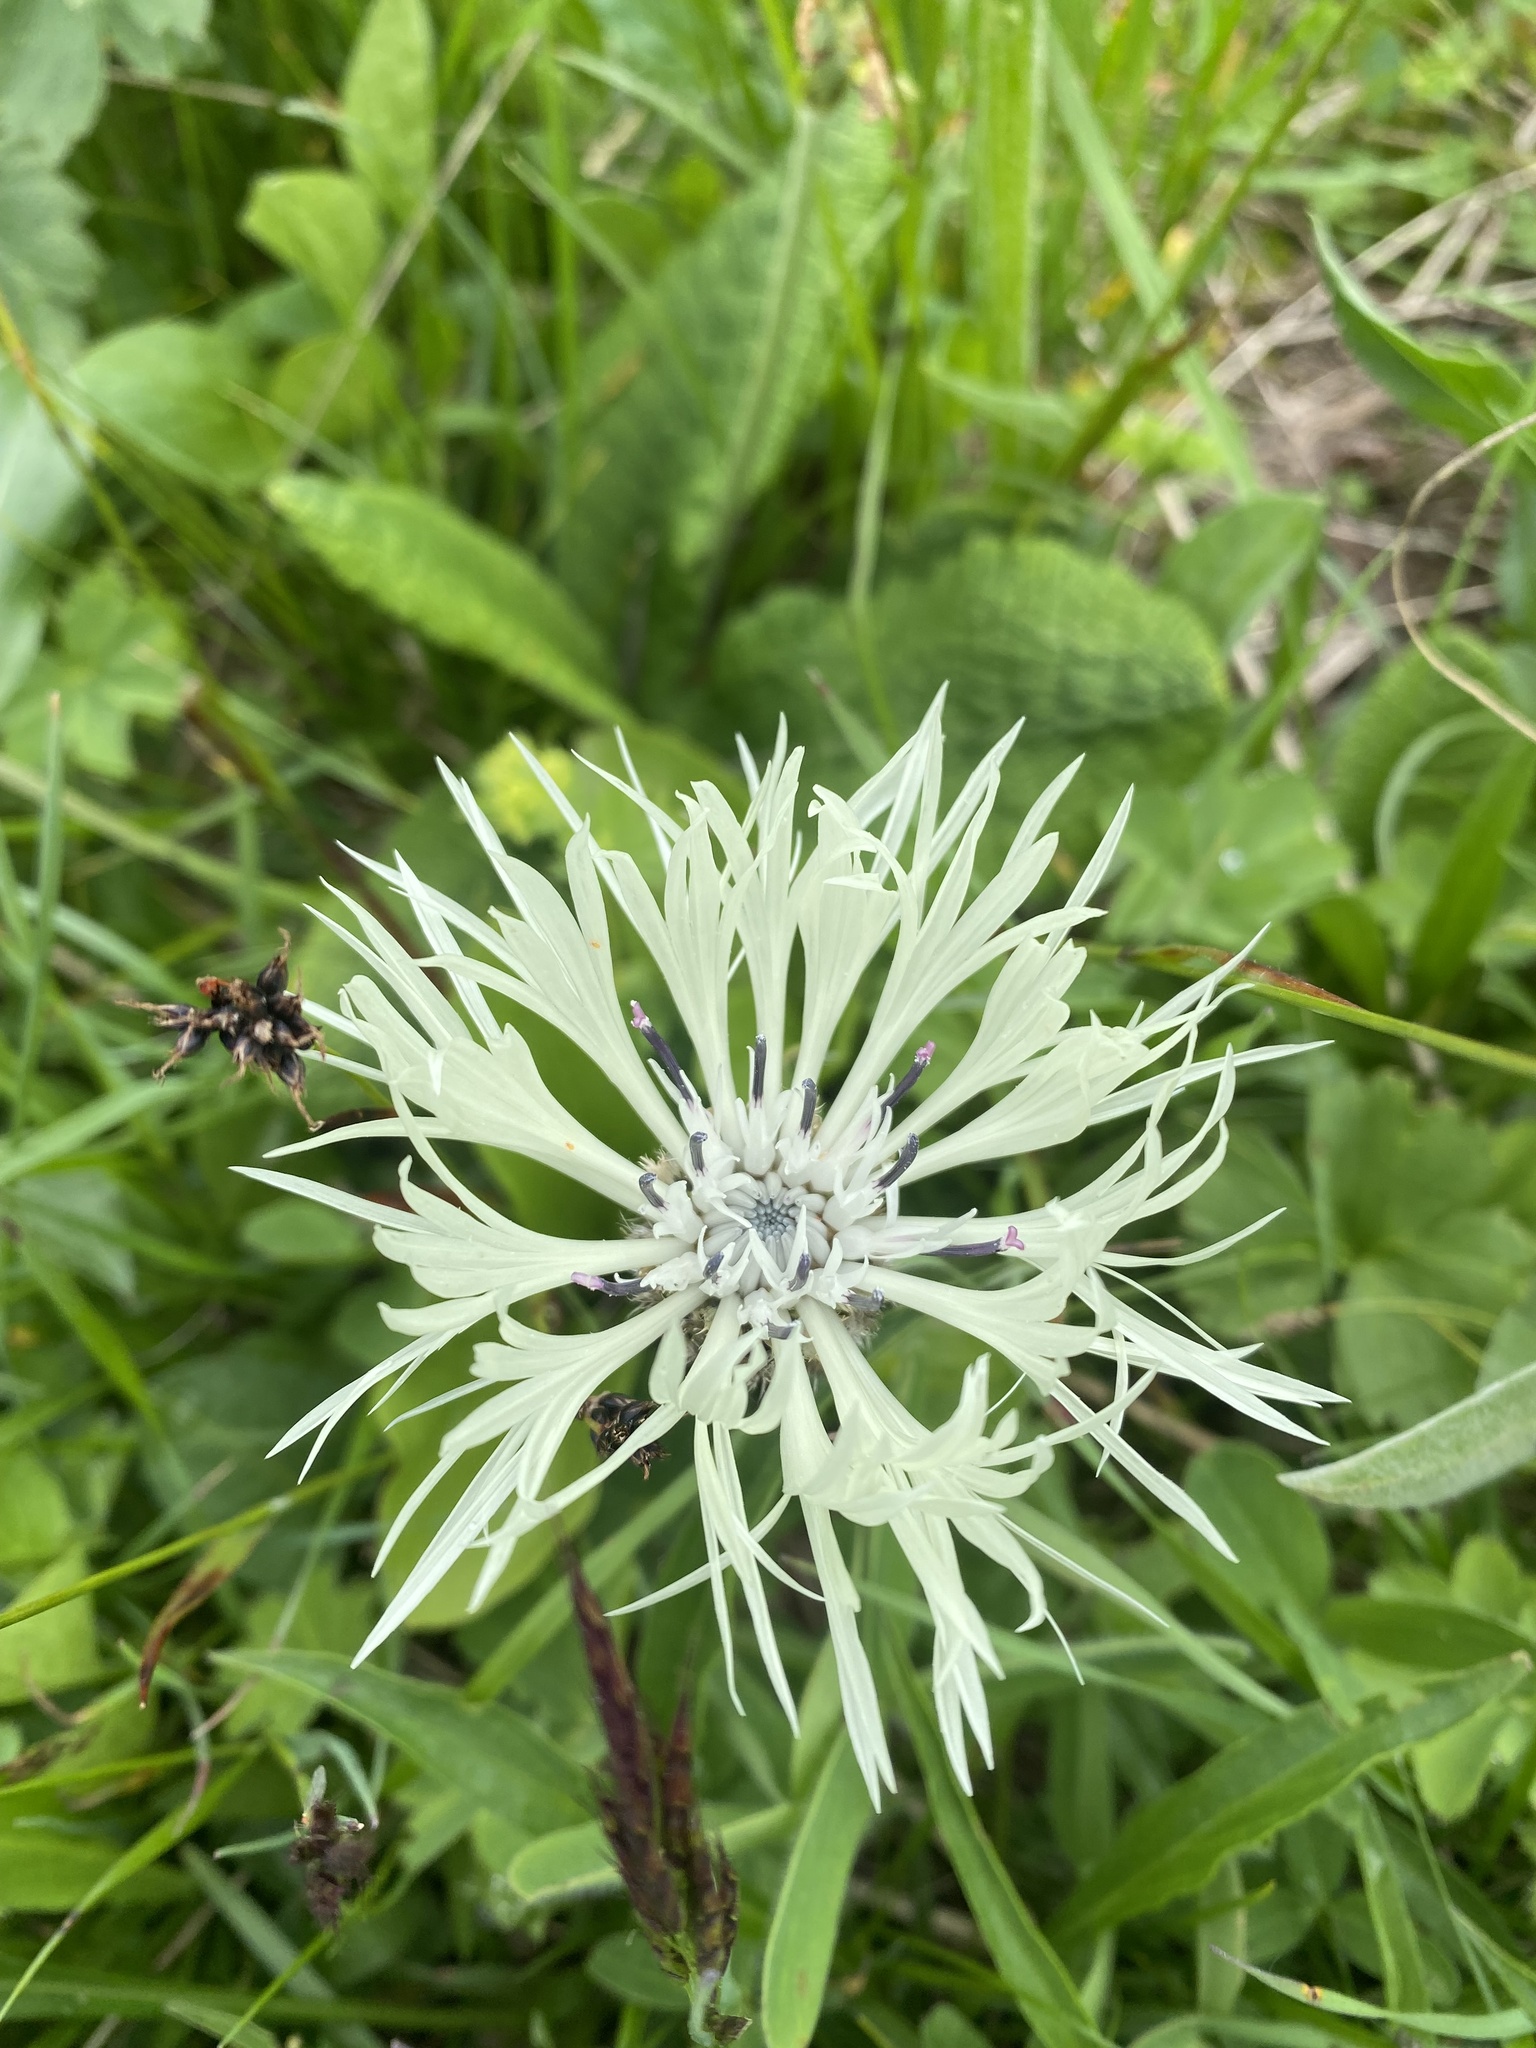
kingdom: Plantae
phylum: Tracheophyta
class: Magnoliopsida
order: Asterales
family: Asteraceae
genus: Centaurea
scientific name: Centaurea cheiranthifolia
